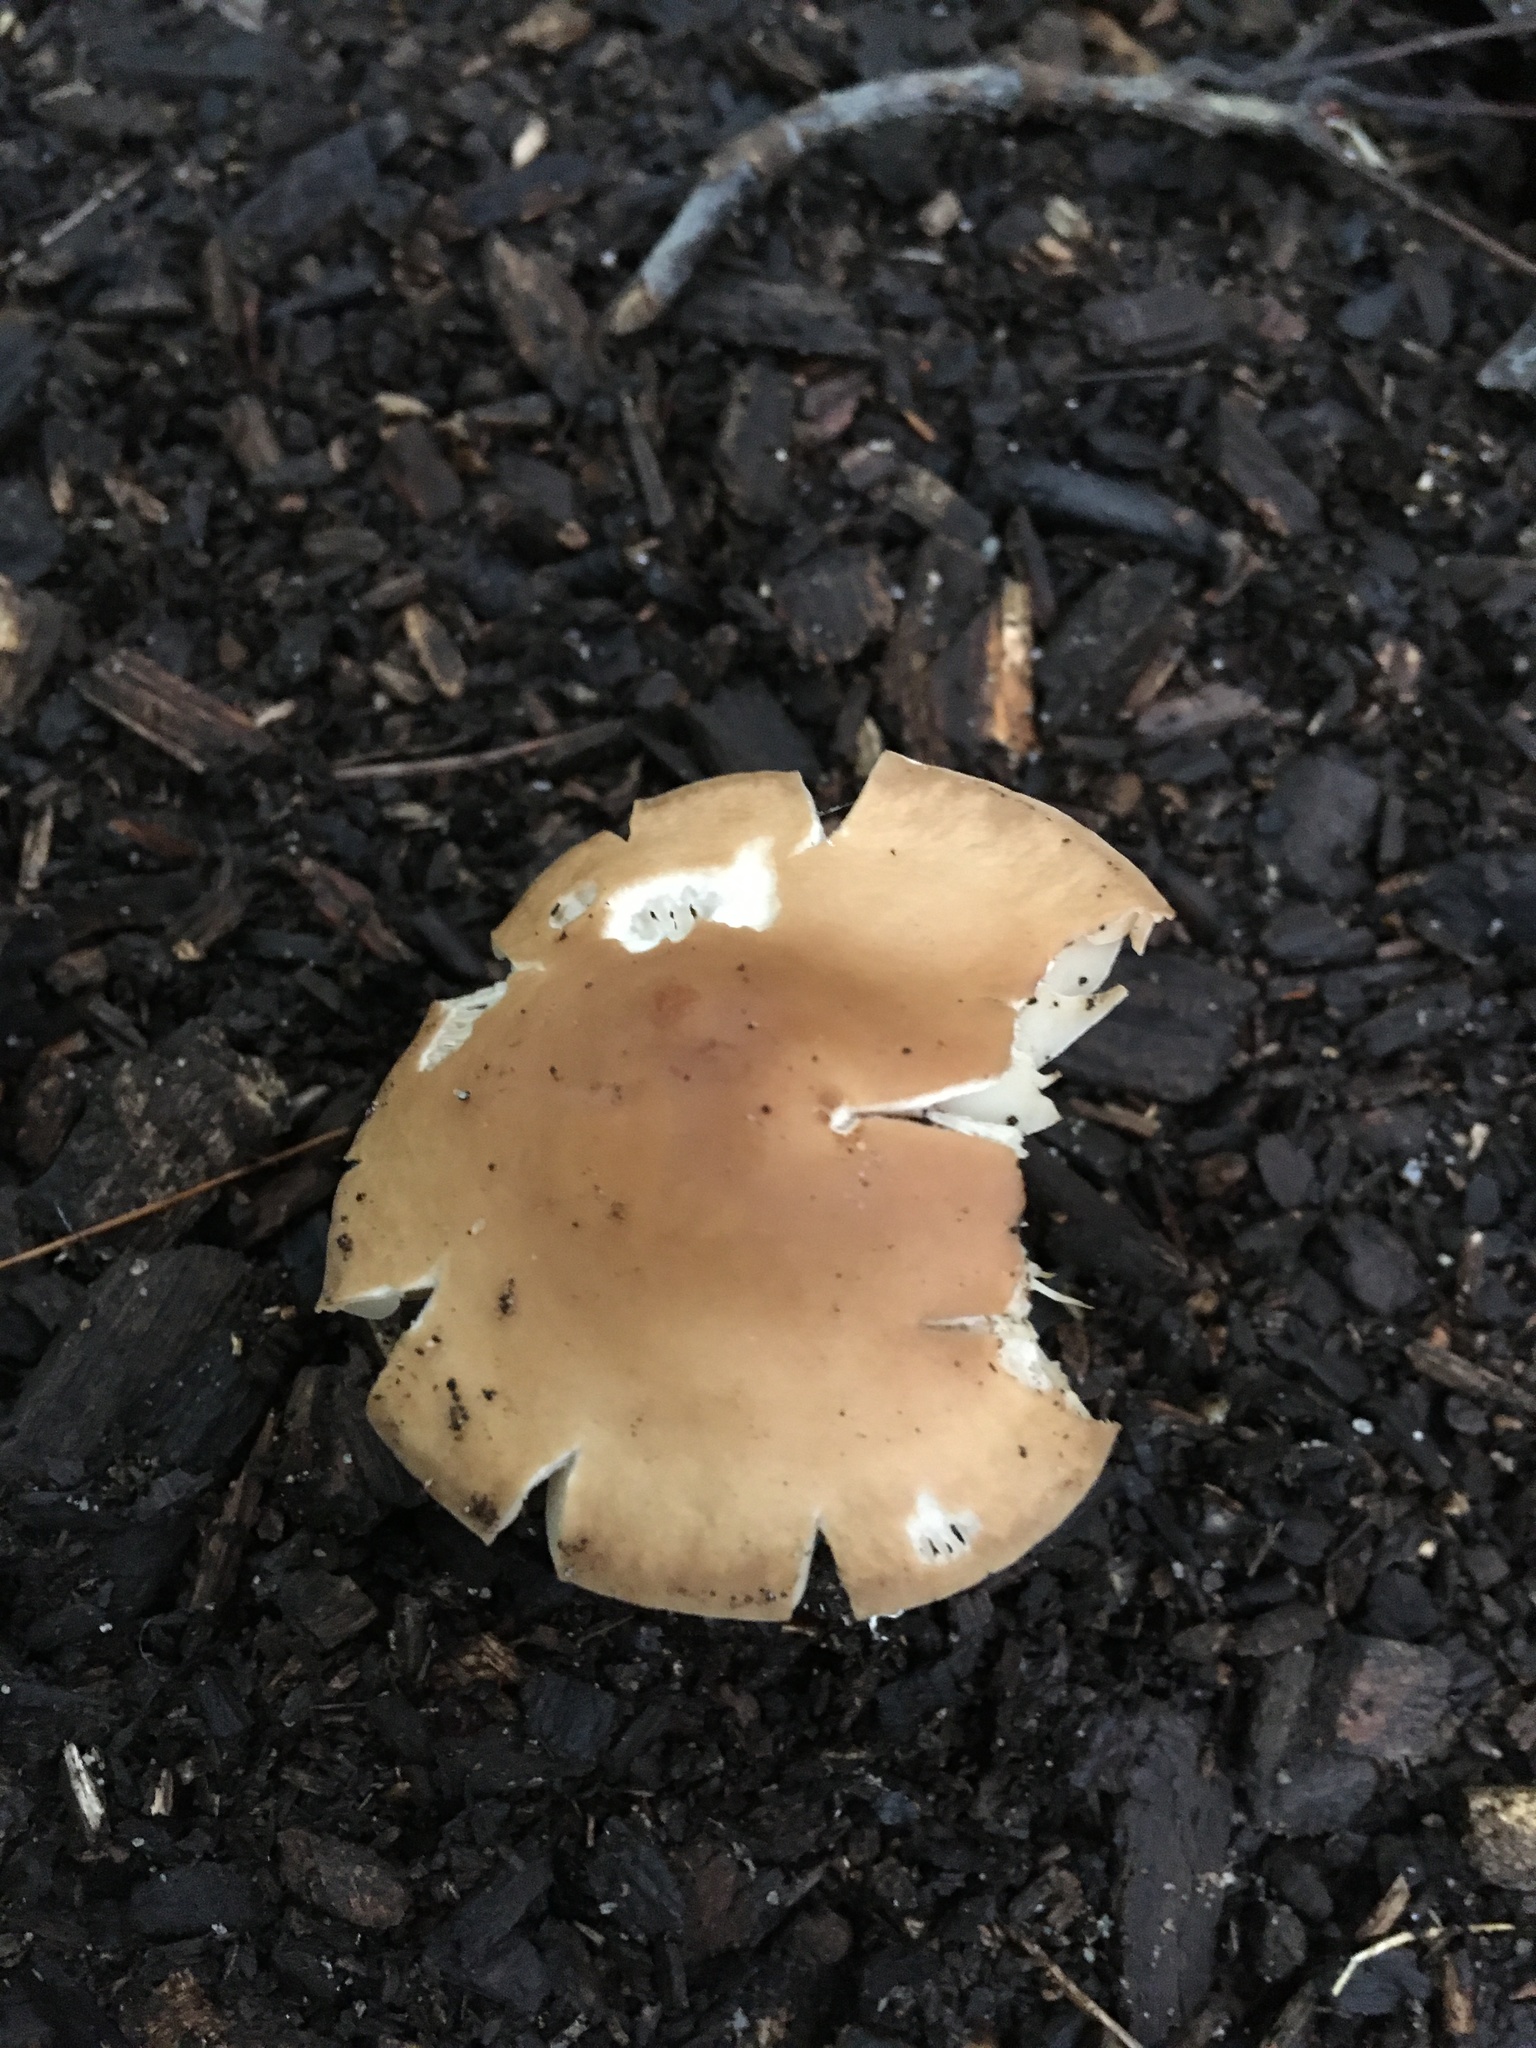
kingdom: Fungi
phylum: Basidiomycota
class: Agaricomycetes
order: Agaricales
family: Marasmiaceae
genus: Marasmius
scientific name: Marasmius nigrodiscus
